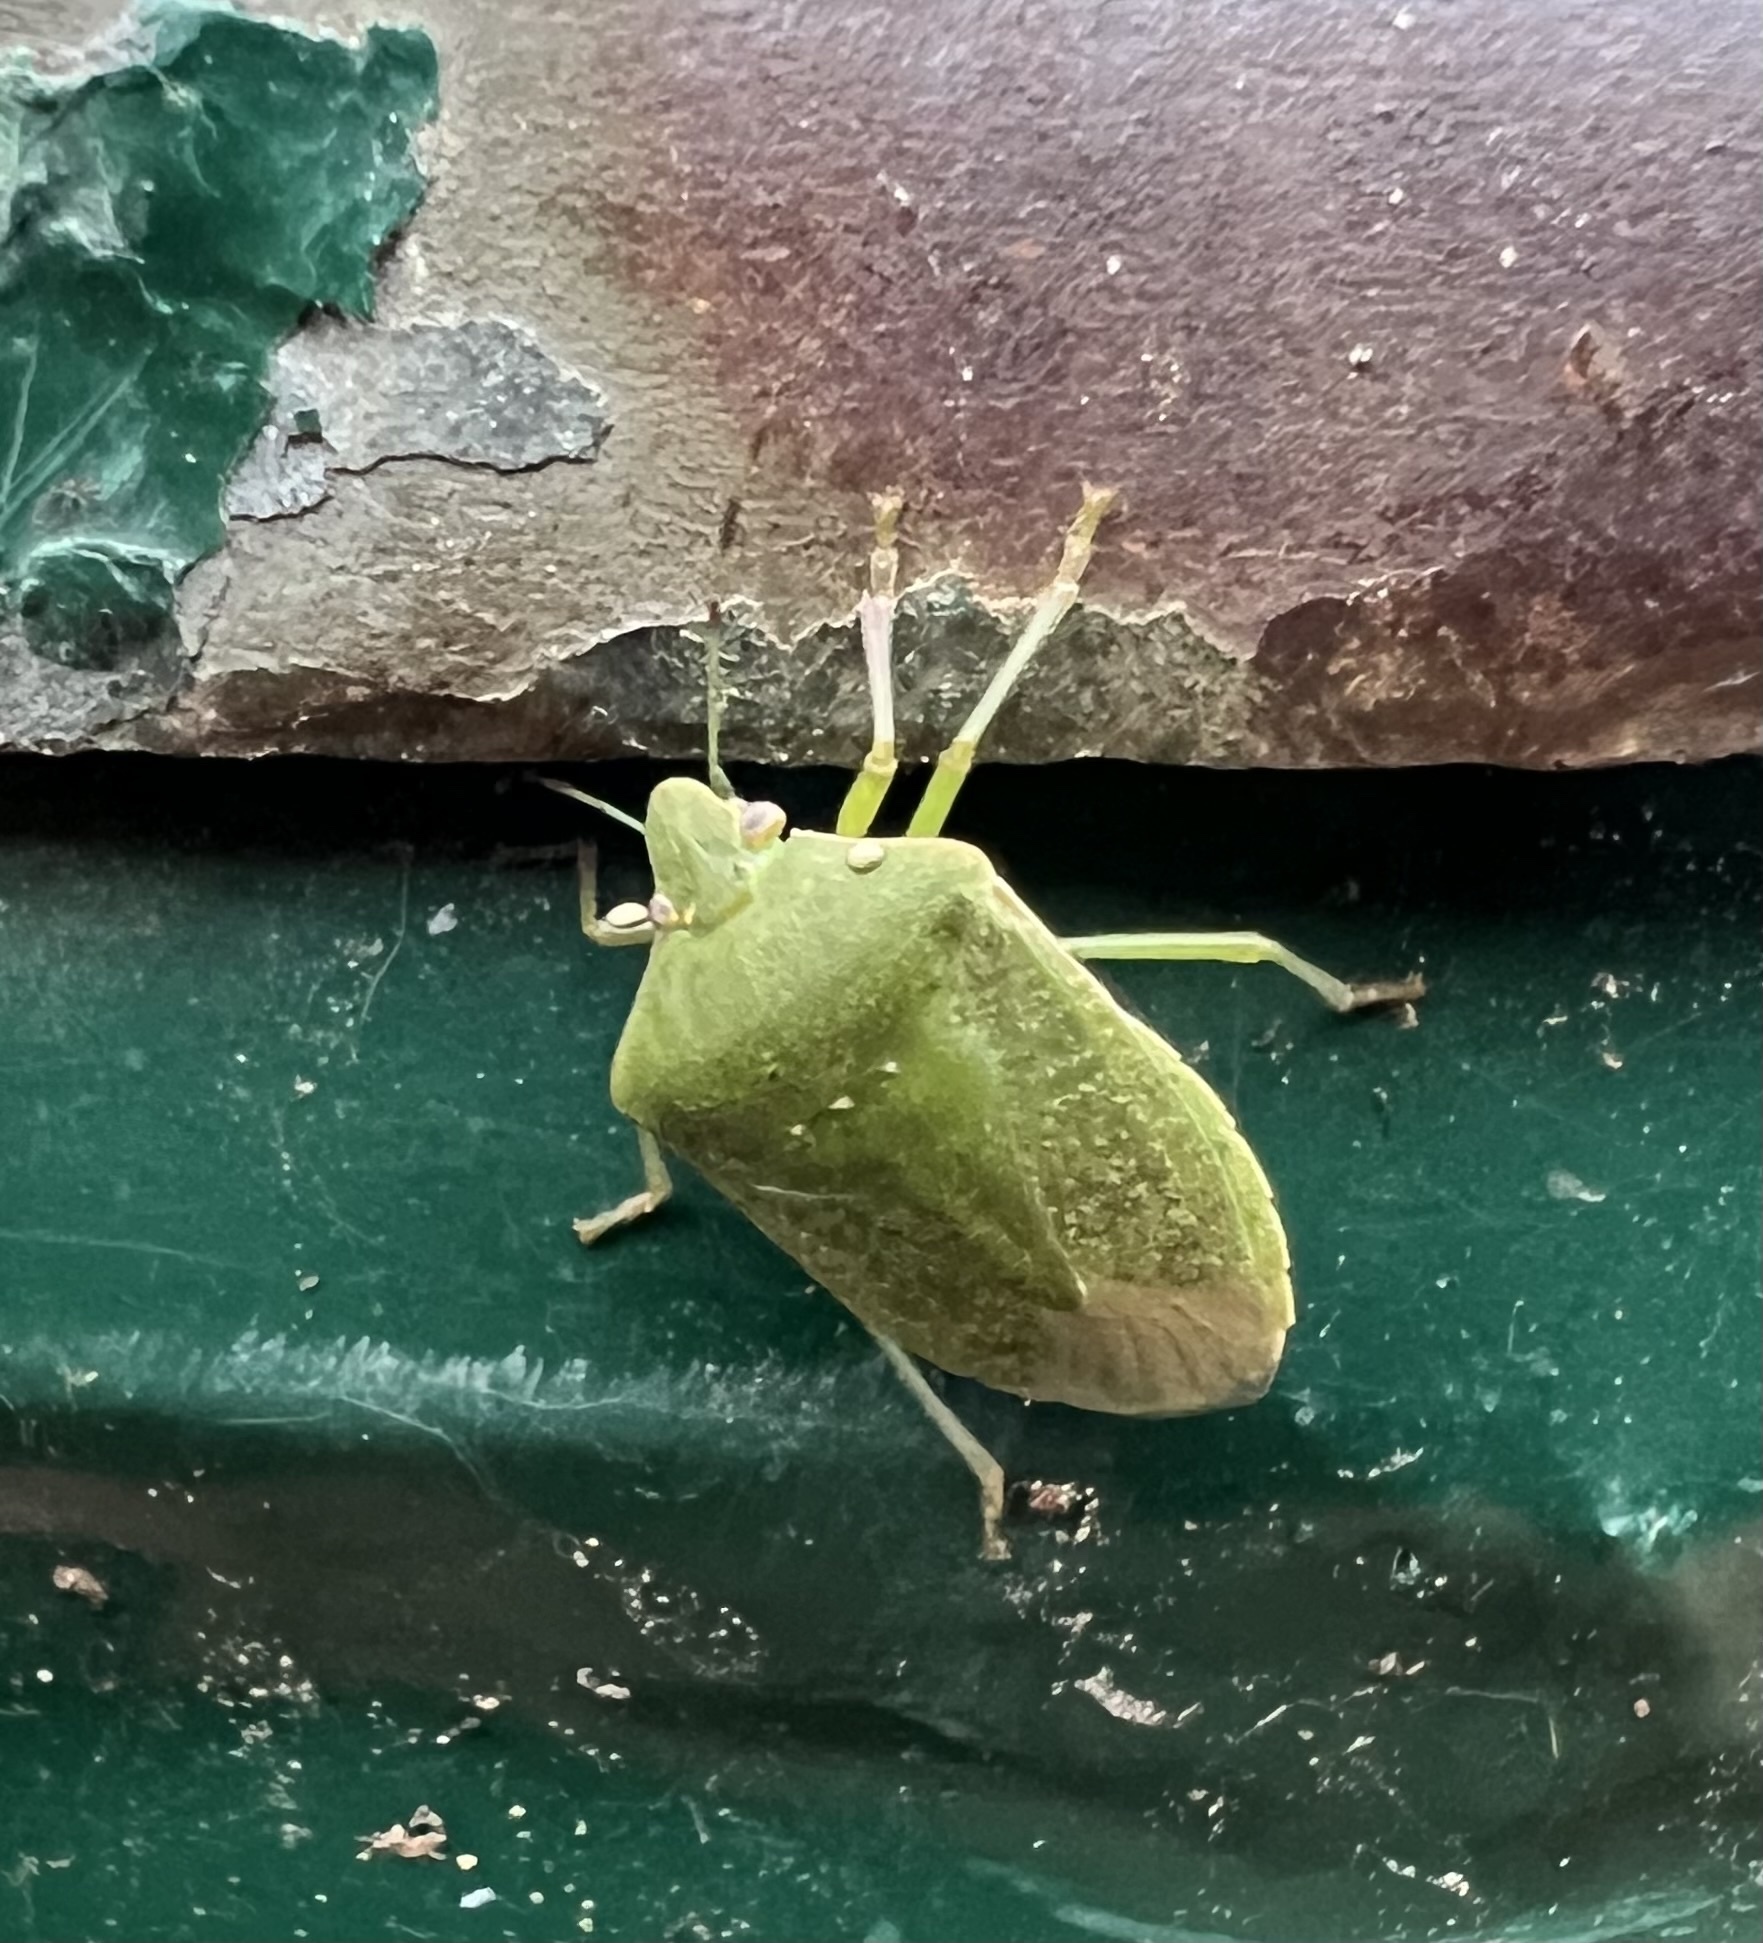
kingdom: Animalia
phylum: Arthropoda
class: Insecta
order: Hemiptera
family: Pentatomidae
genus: Nezara
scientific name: Nezara viridula
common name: Southern green stink bug
